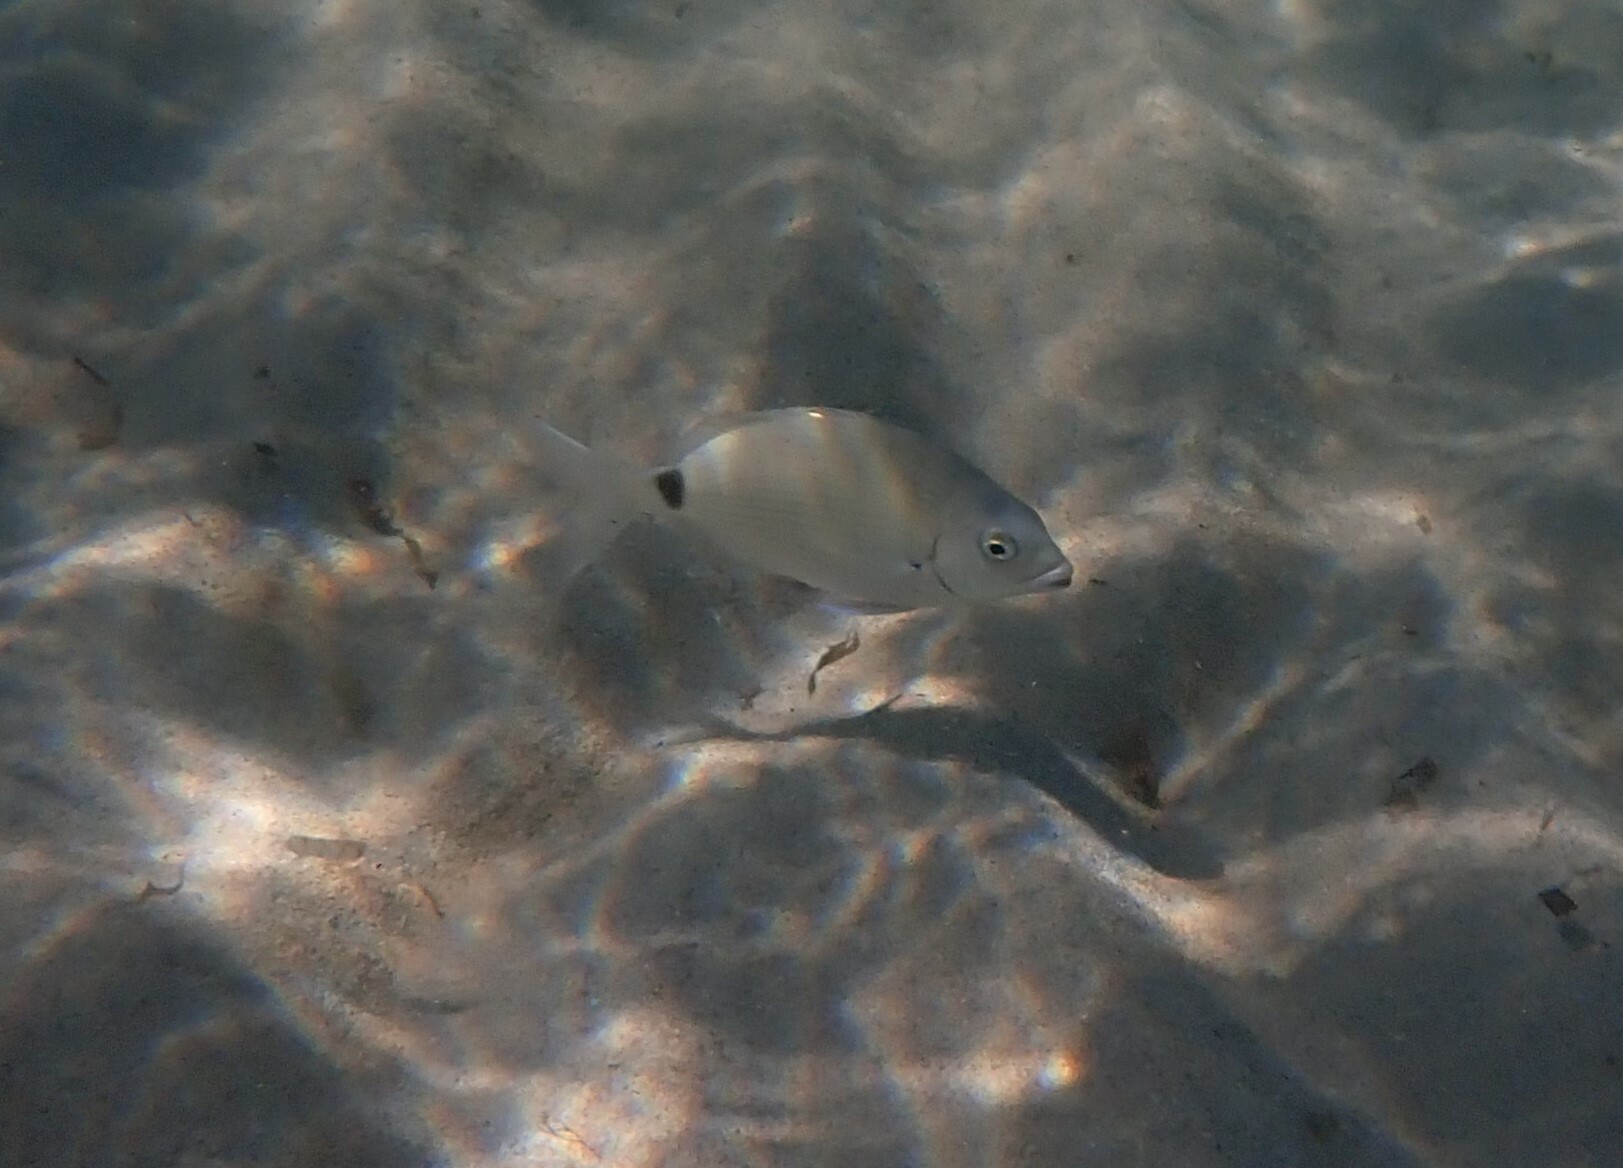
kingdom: Animalia
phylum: Chordata
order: Perciformes
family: Sparidae
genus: Diplodus
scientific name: Diplodus sargus
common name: White seabream
